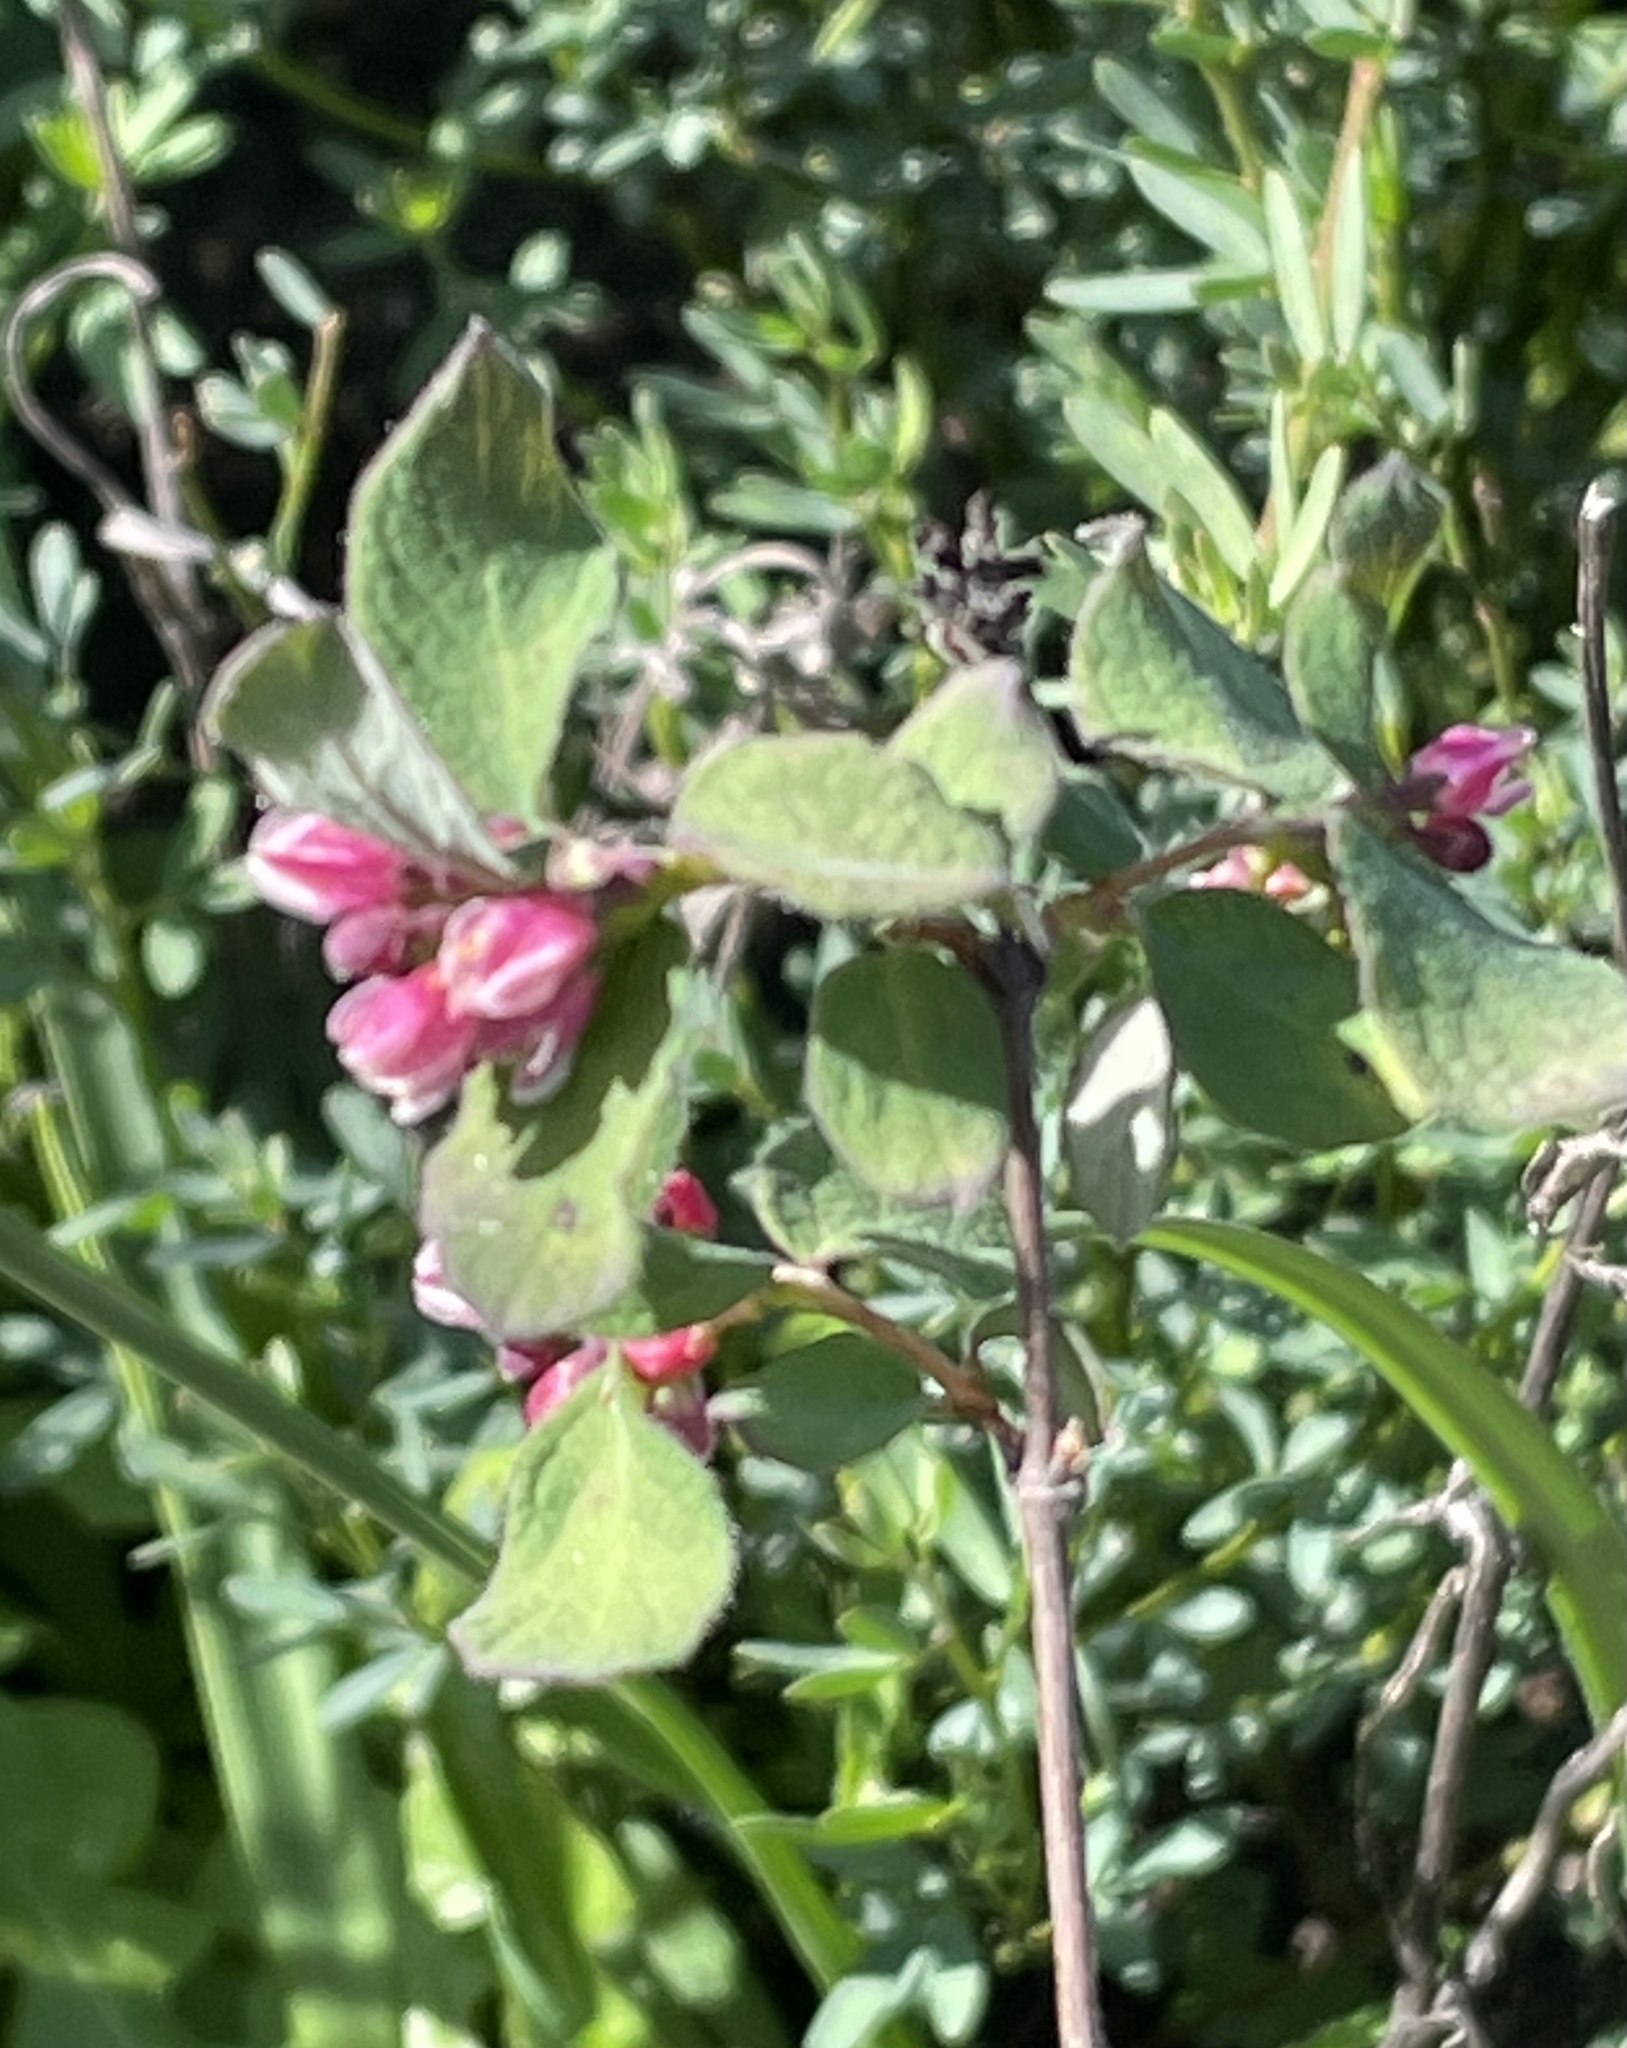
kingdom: Plantae
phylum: Tracheophyta
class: Magnoliopsida
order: Dipsacales
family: Caprifoliaceae
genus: Symphoricarpos
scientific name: Symphoricarpos albus
